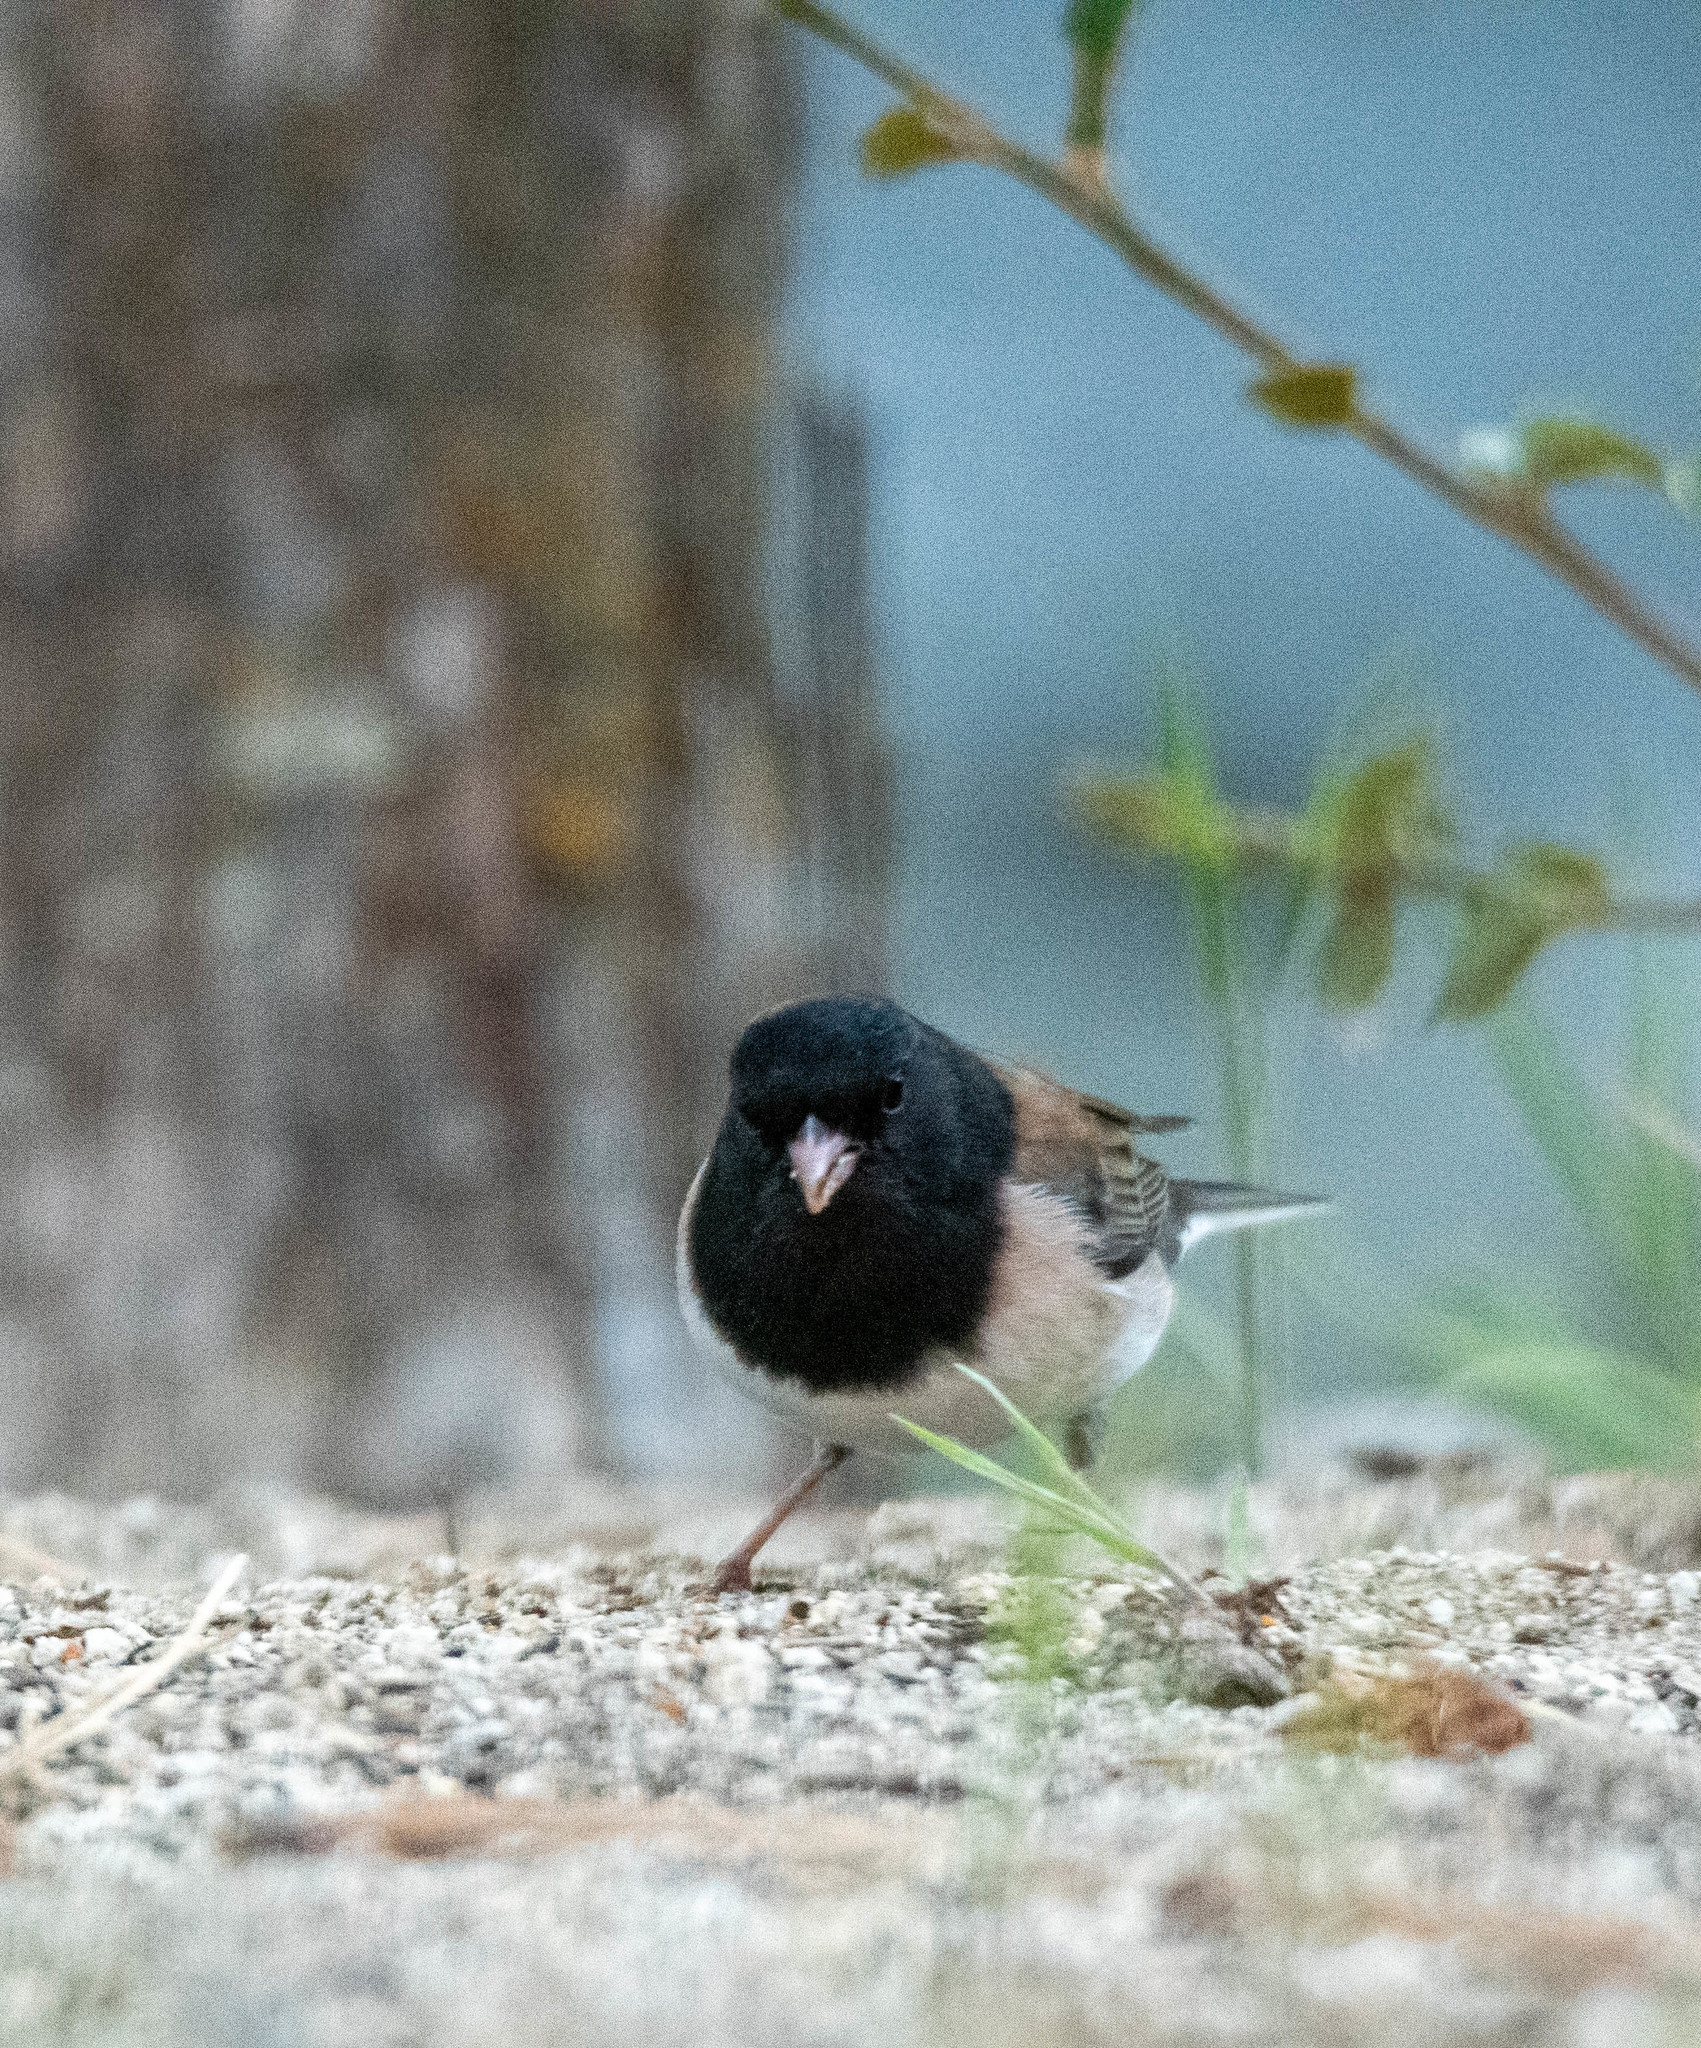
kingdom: Animalia
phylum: Chordata
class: Aves
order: Passeriformes
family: Passerellidae
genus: Junco
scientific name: Junco hyemalis
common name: Dark-eyed junco
